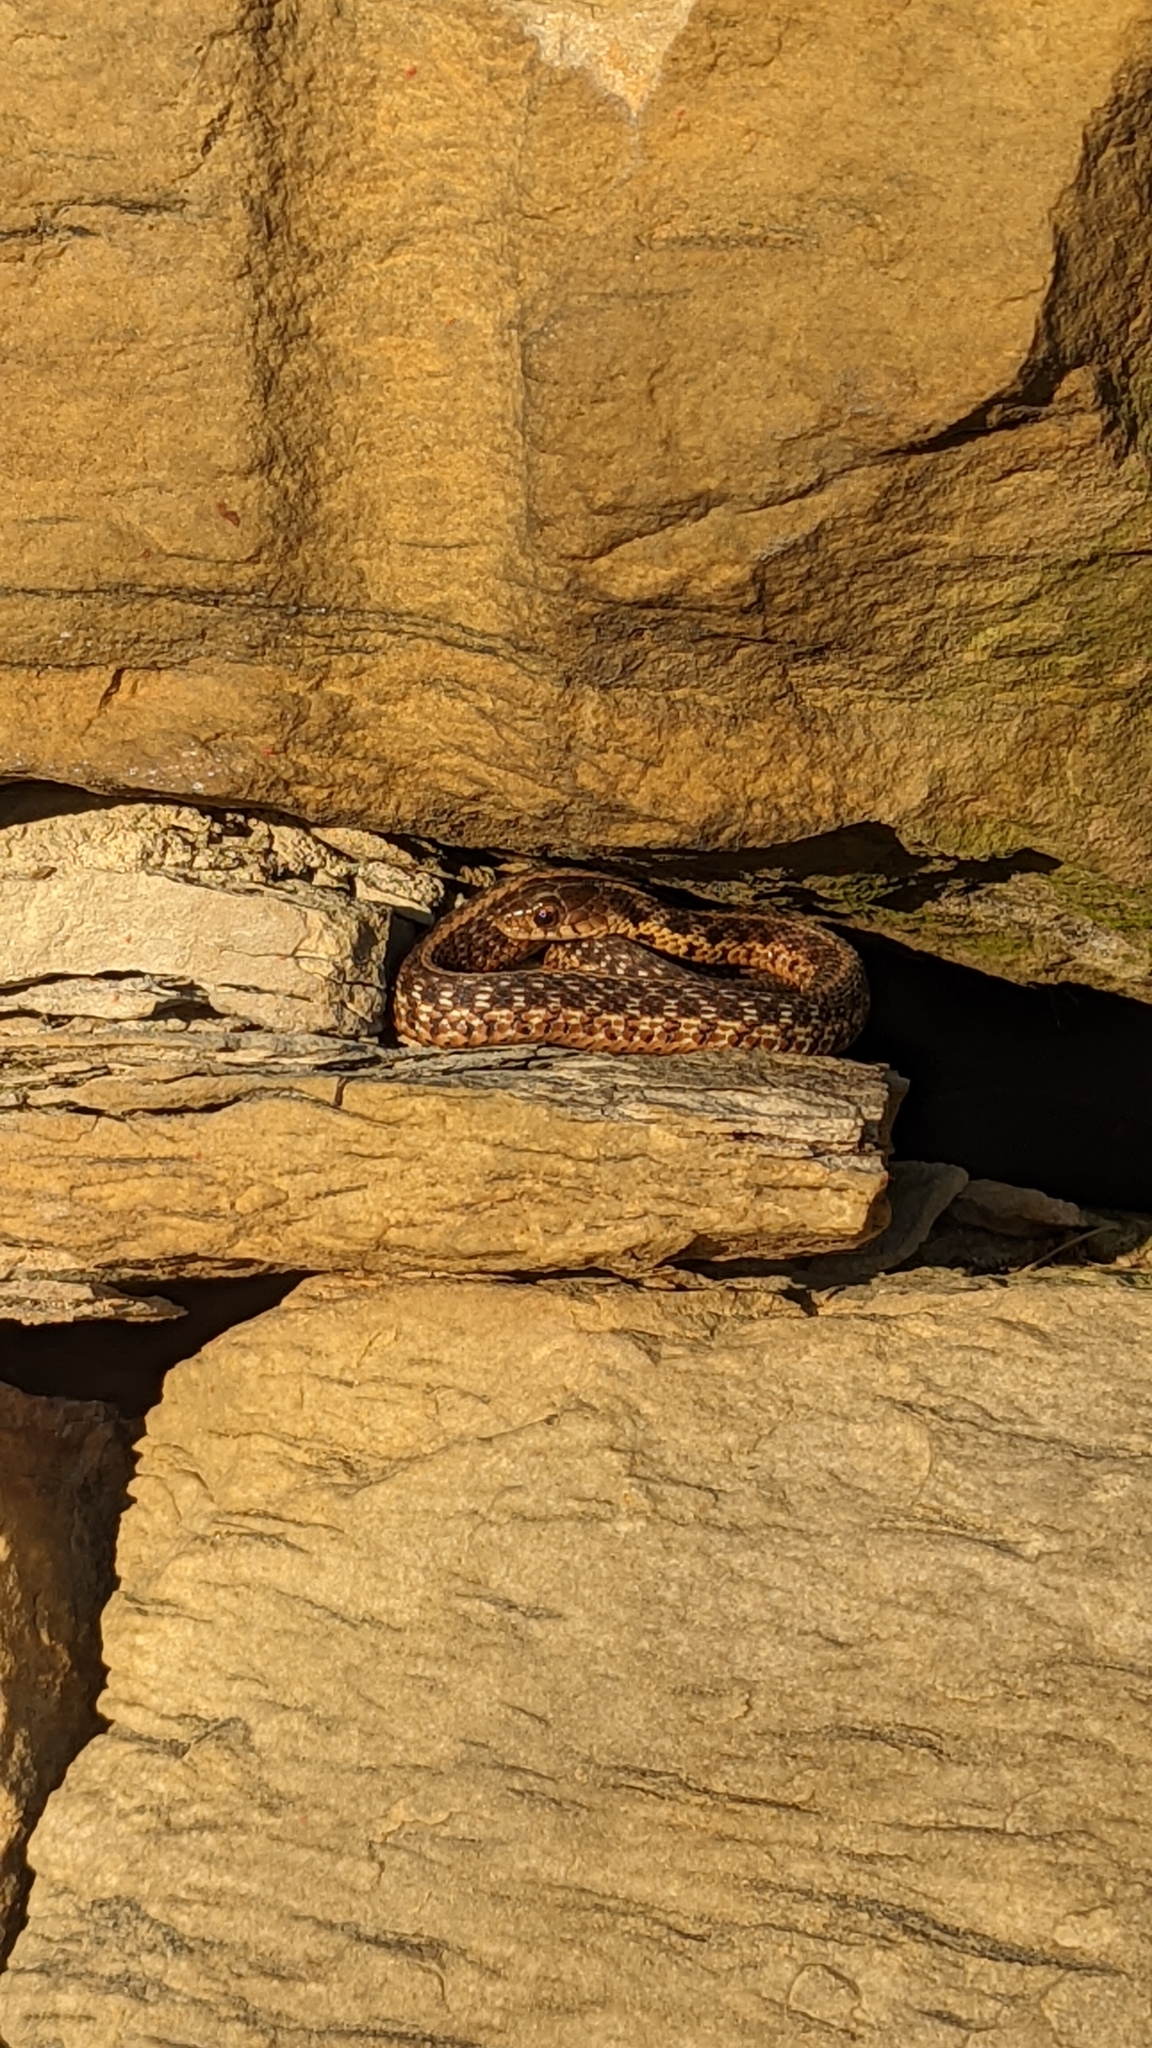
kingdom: Animalia
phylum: Chordata
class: Squamata
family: Colubridae
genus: Thamnophis
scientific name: Thamnophis sirtalis
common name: Common garter snake
